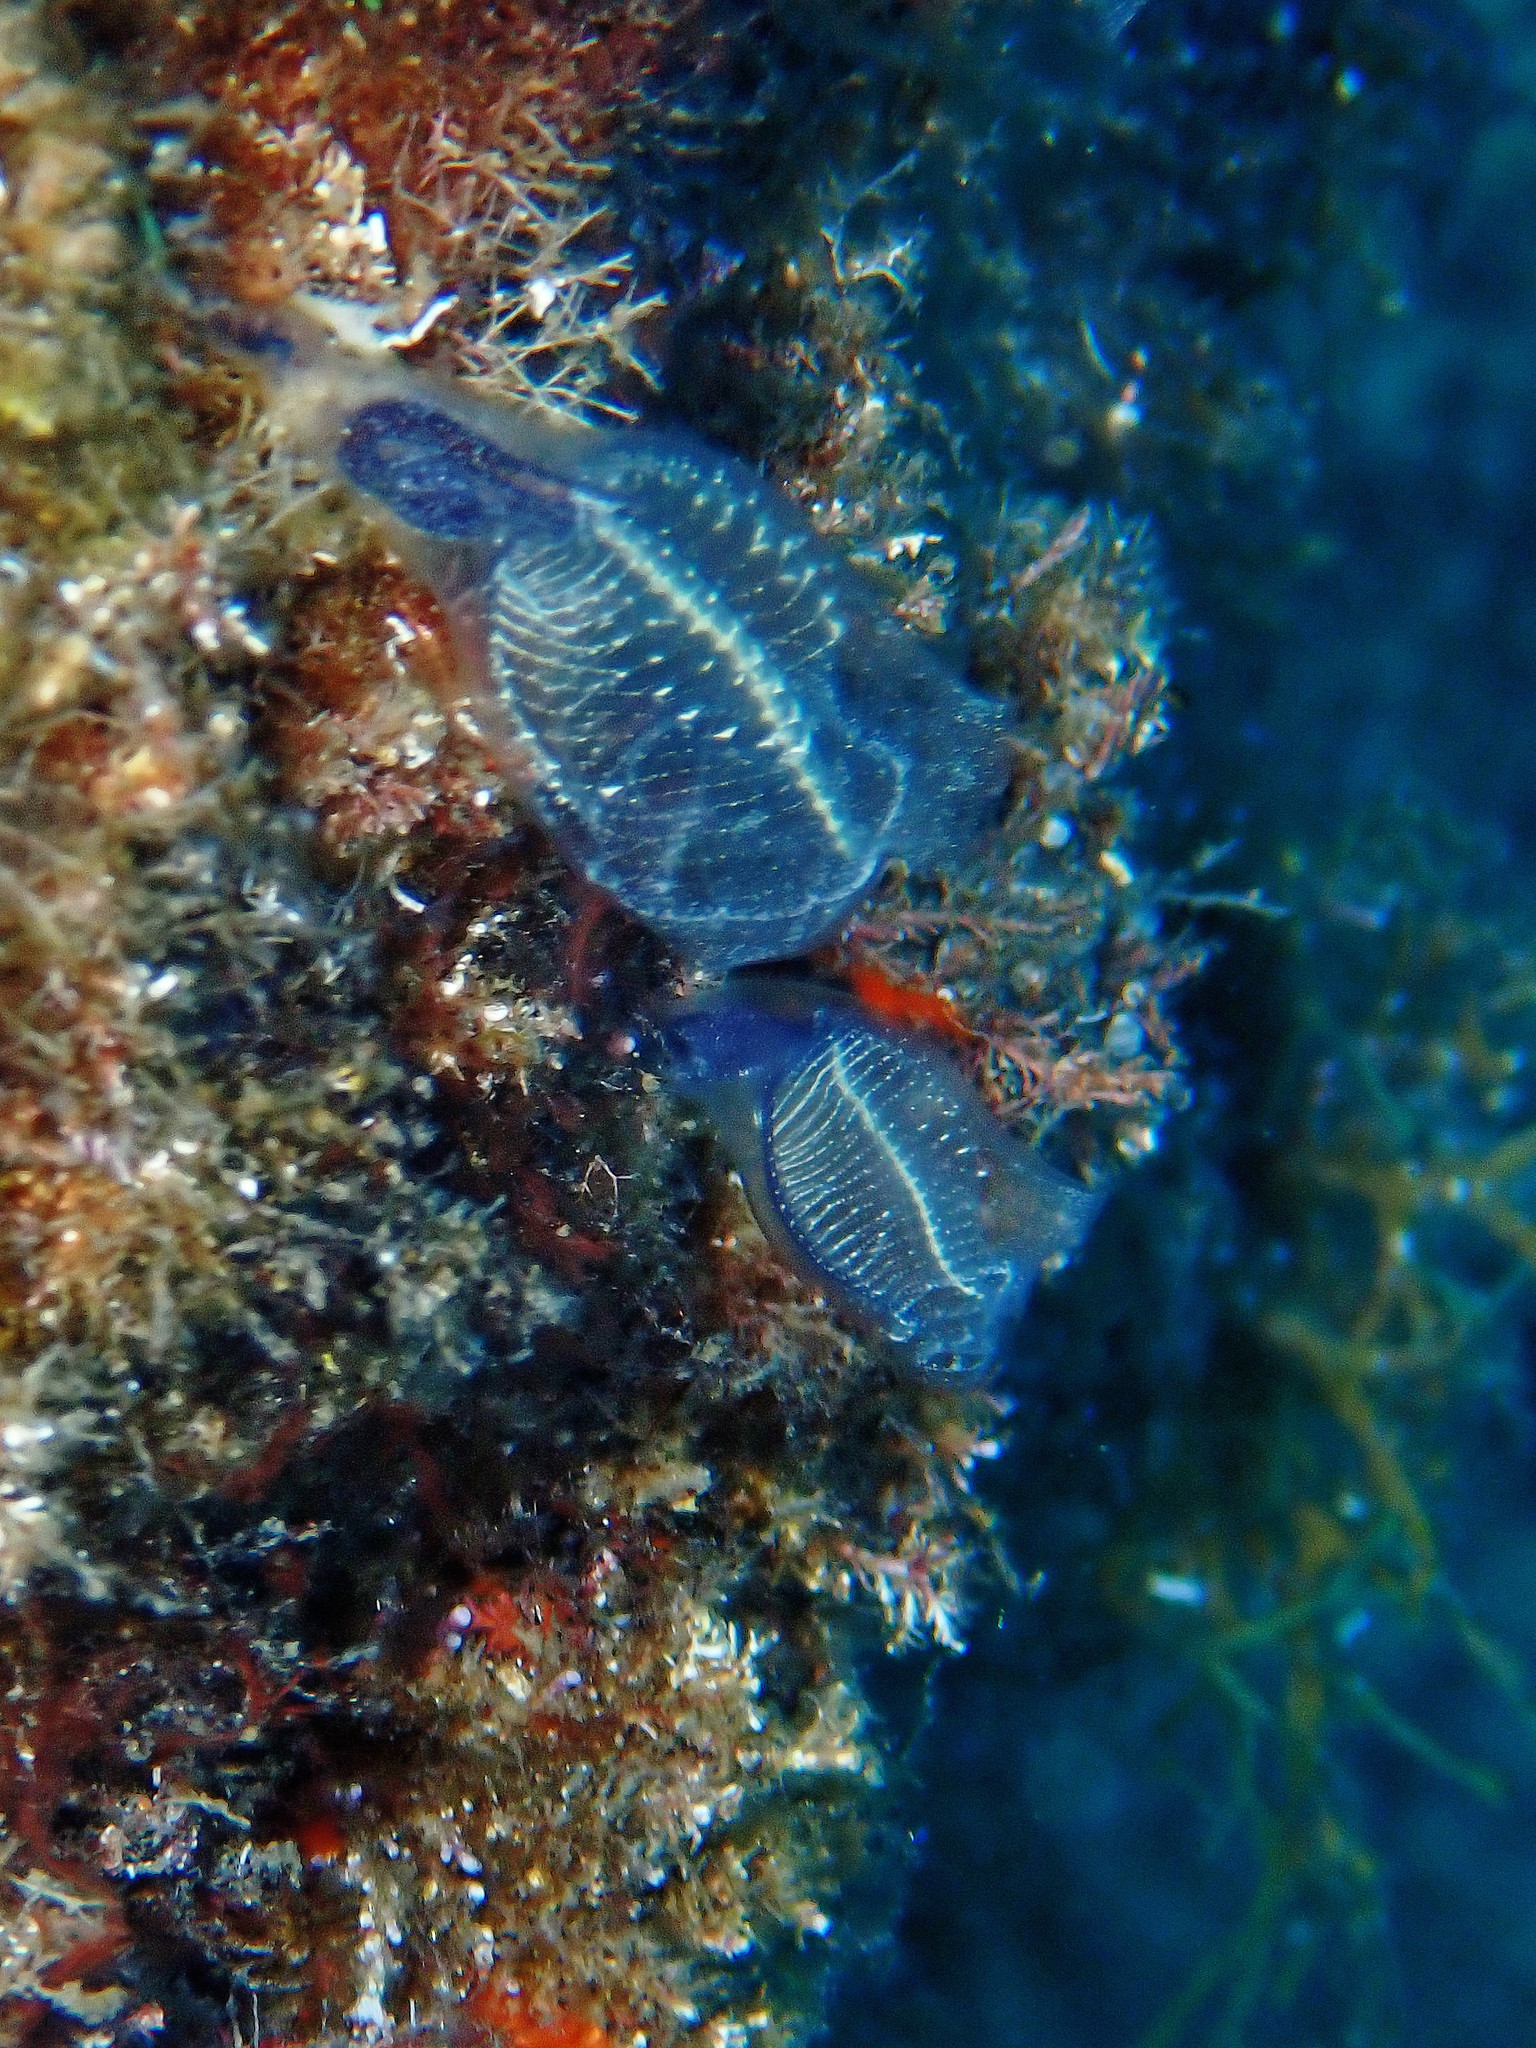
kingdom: Animalia
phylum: Chordata
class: Ascidiacea
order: Aplousobranchia
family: Clavelinidae
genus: Clavelina
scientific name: Clavelina dellavallei
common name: Bluestriped light bulb tunicate
